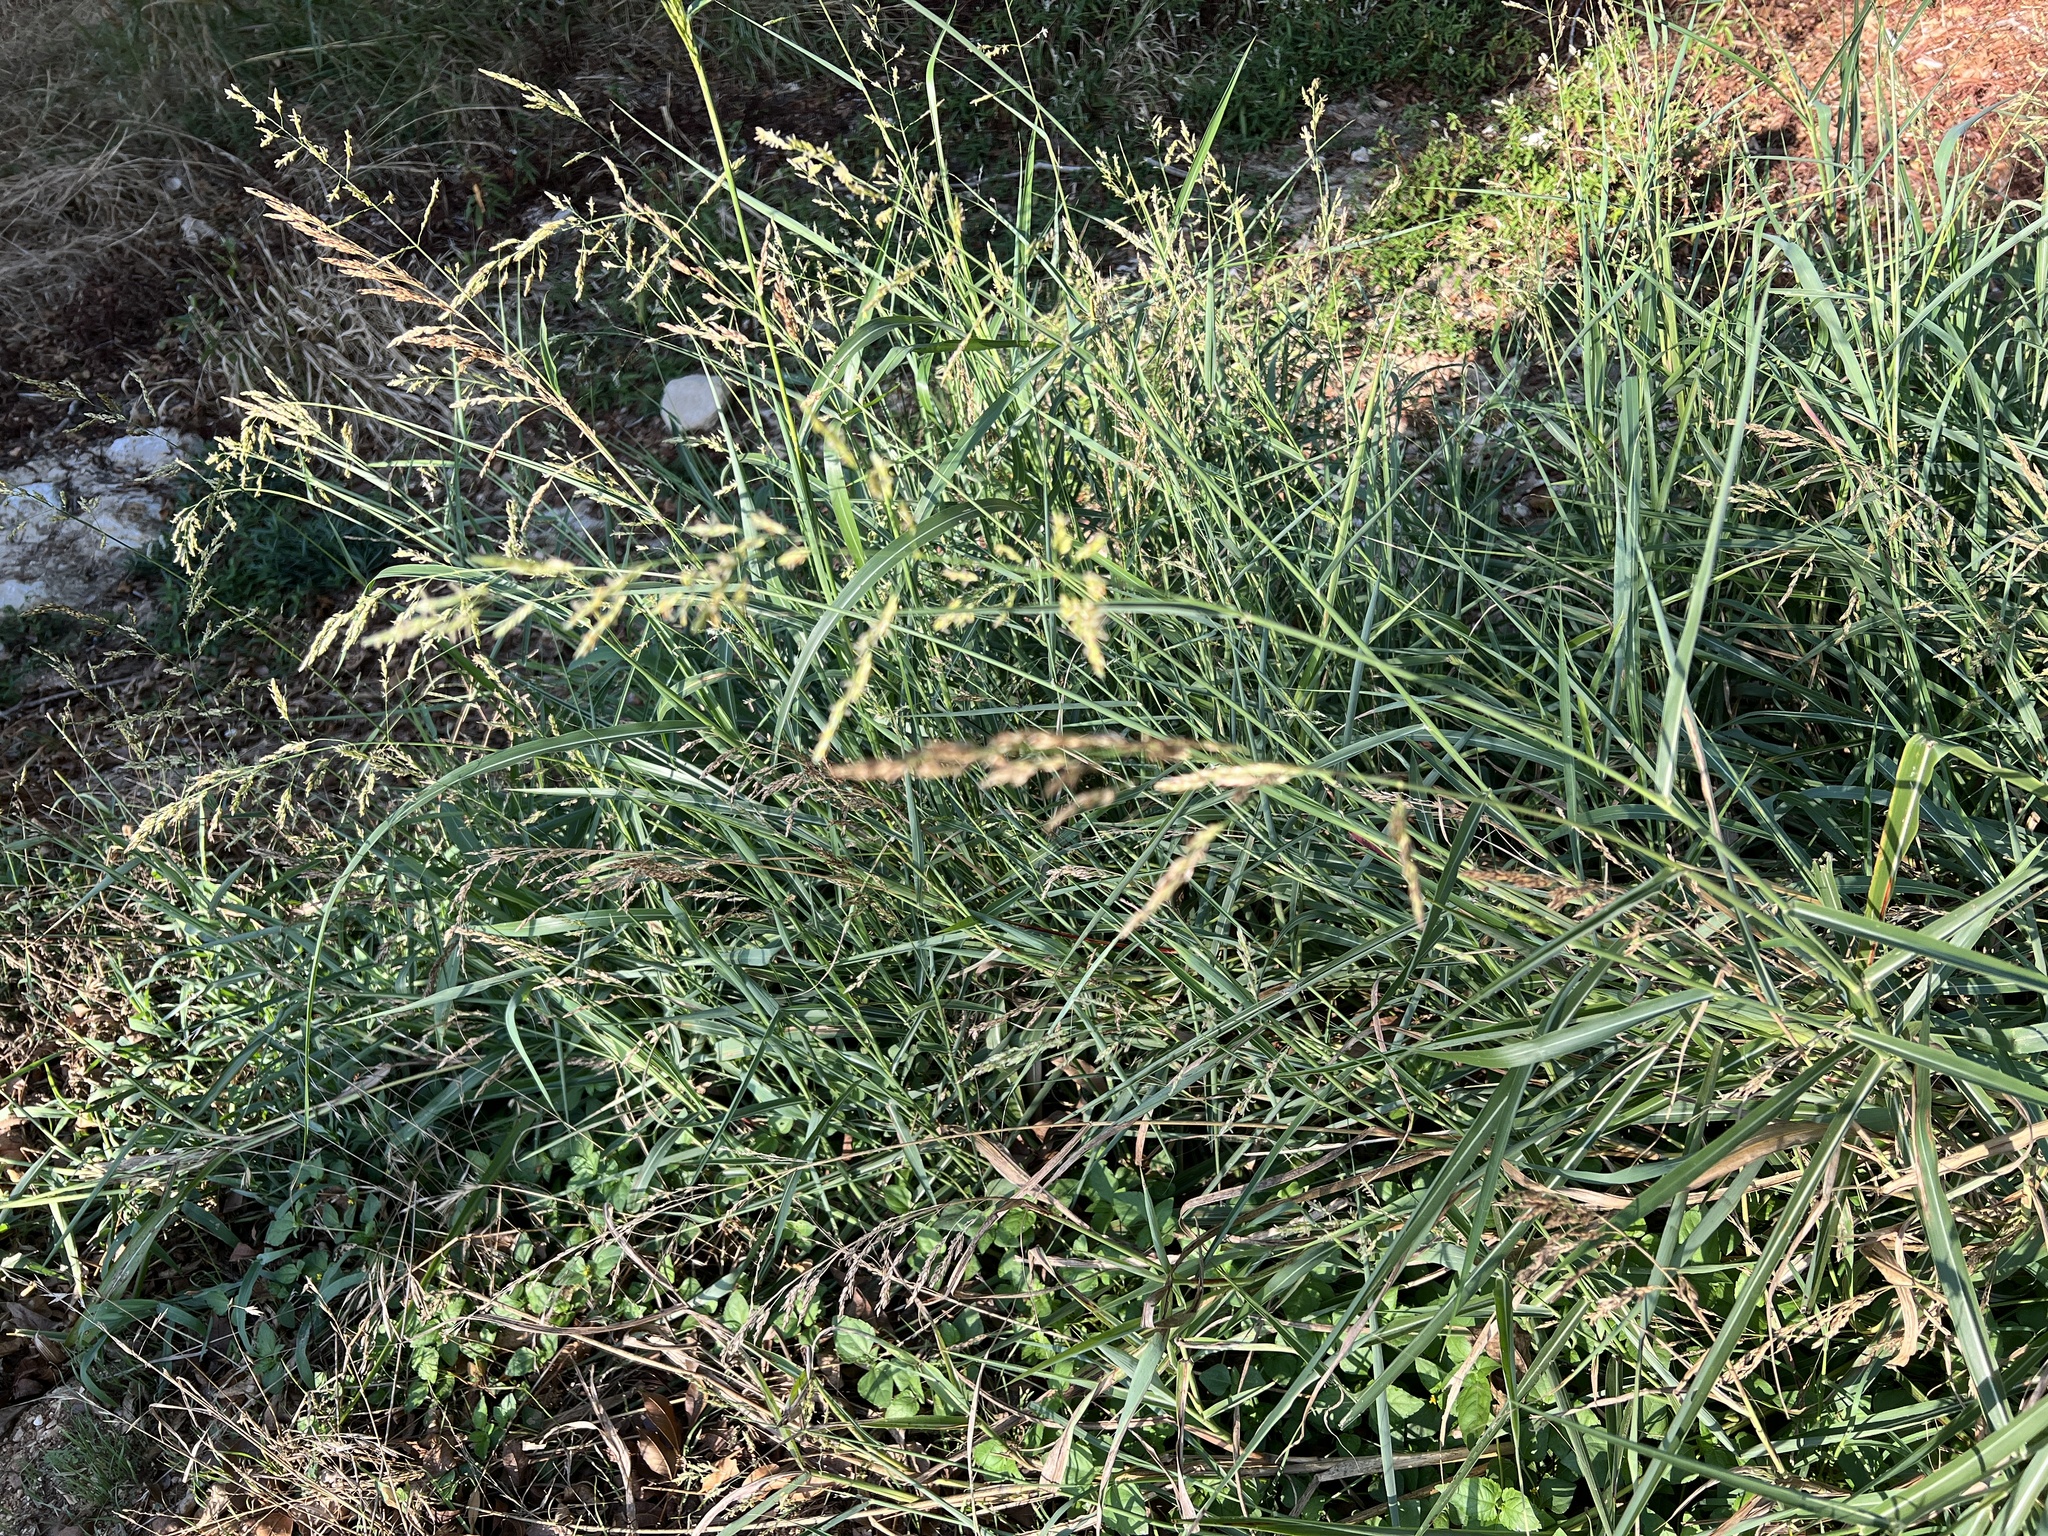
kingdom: Plantae
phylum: Tracheophyta
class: Liliopsida
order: Poales
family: Poaceae
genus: Sorghum
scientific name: Sorghum halepense
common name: Johnson-grass
